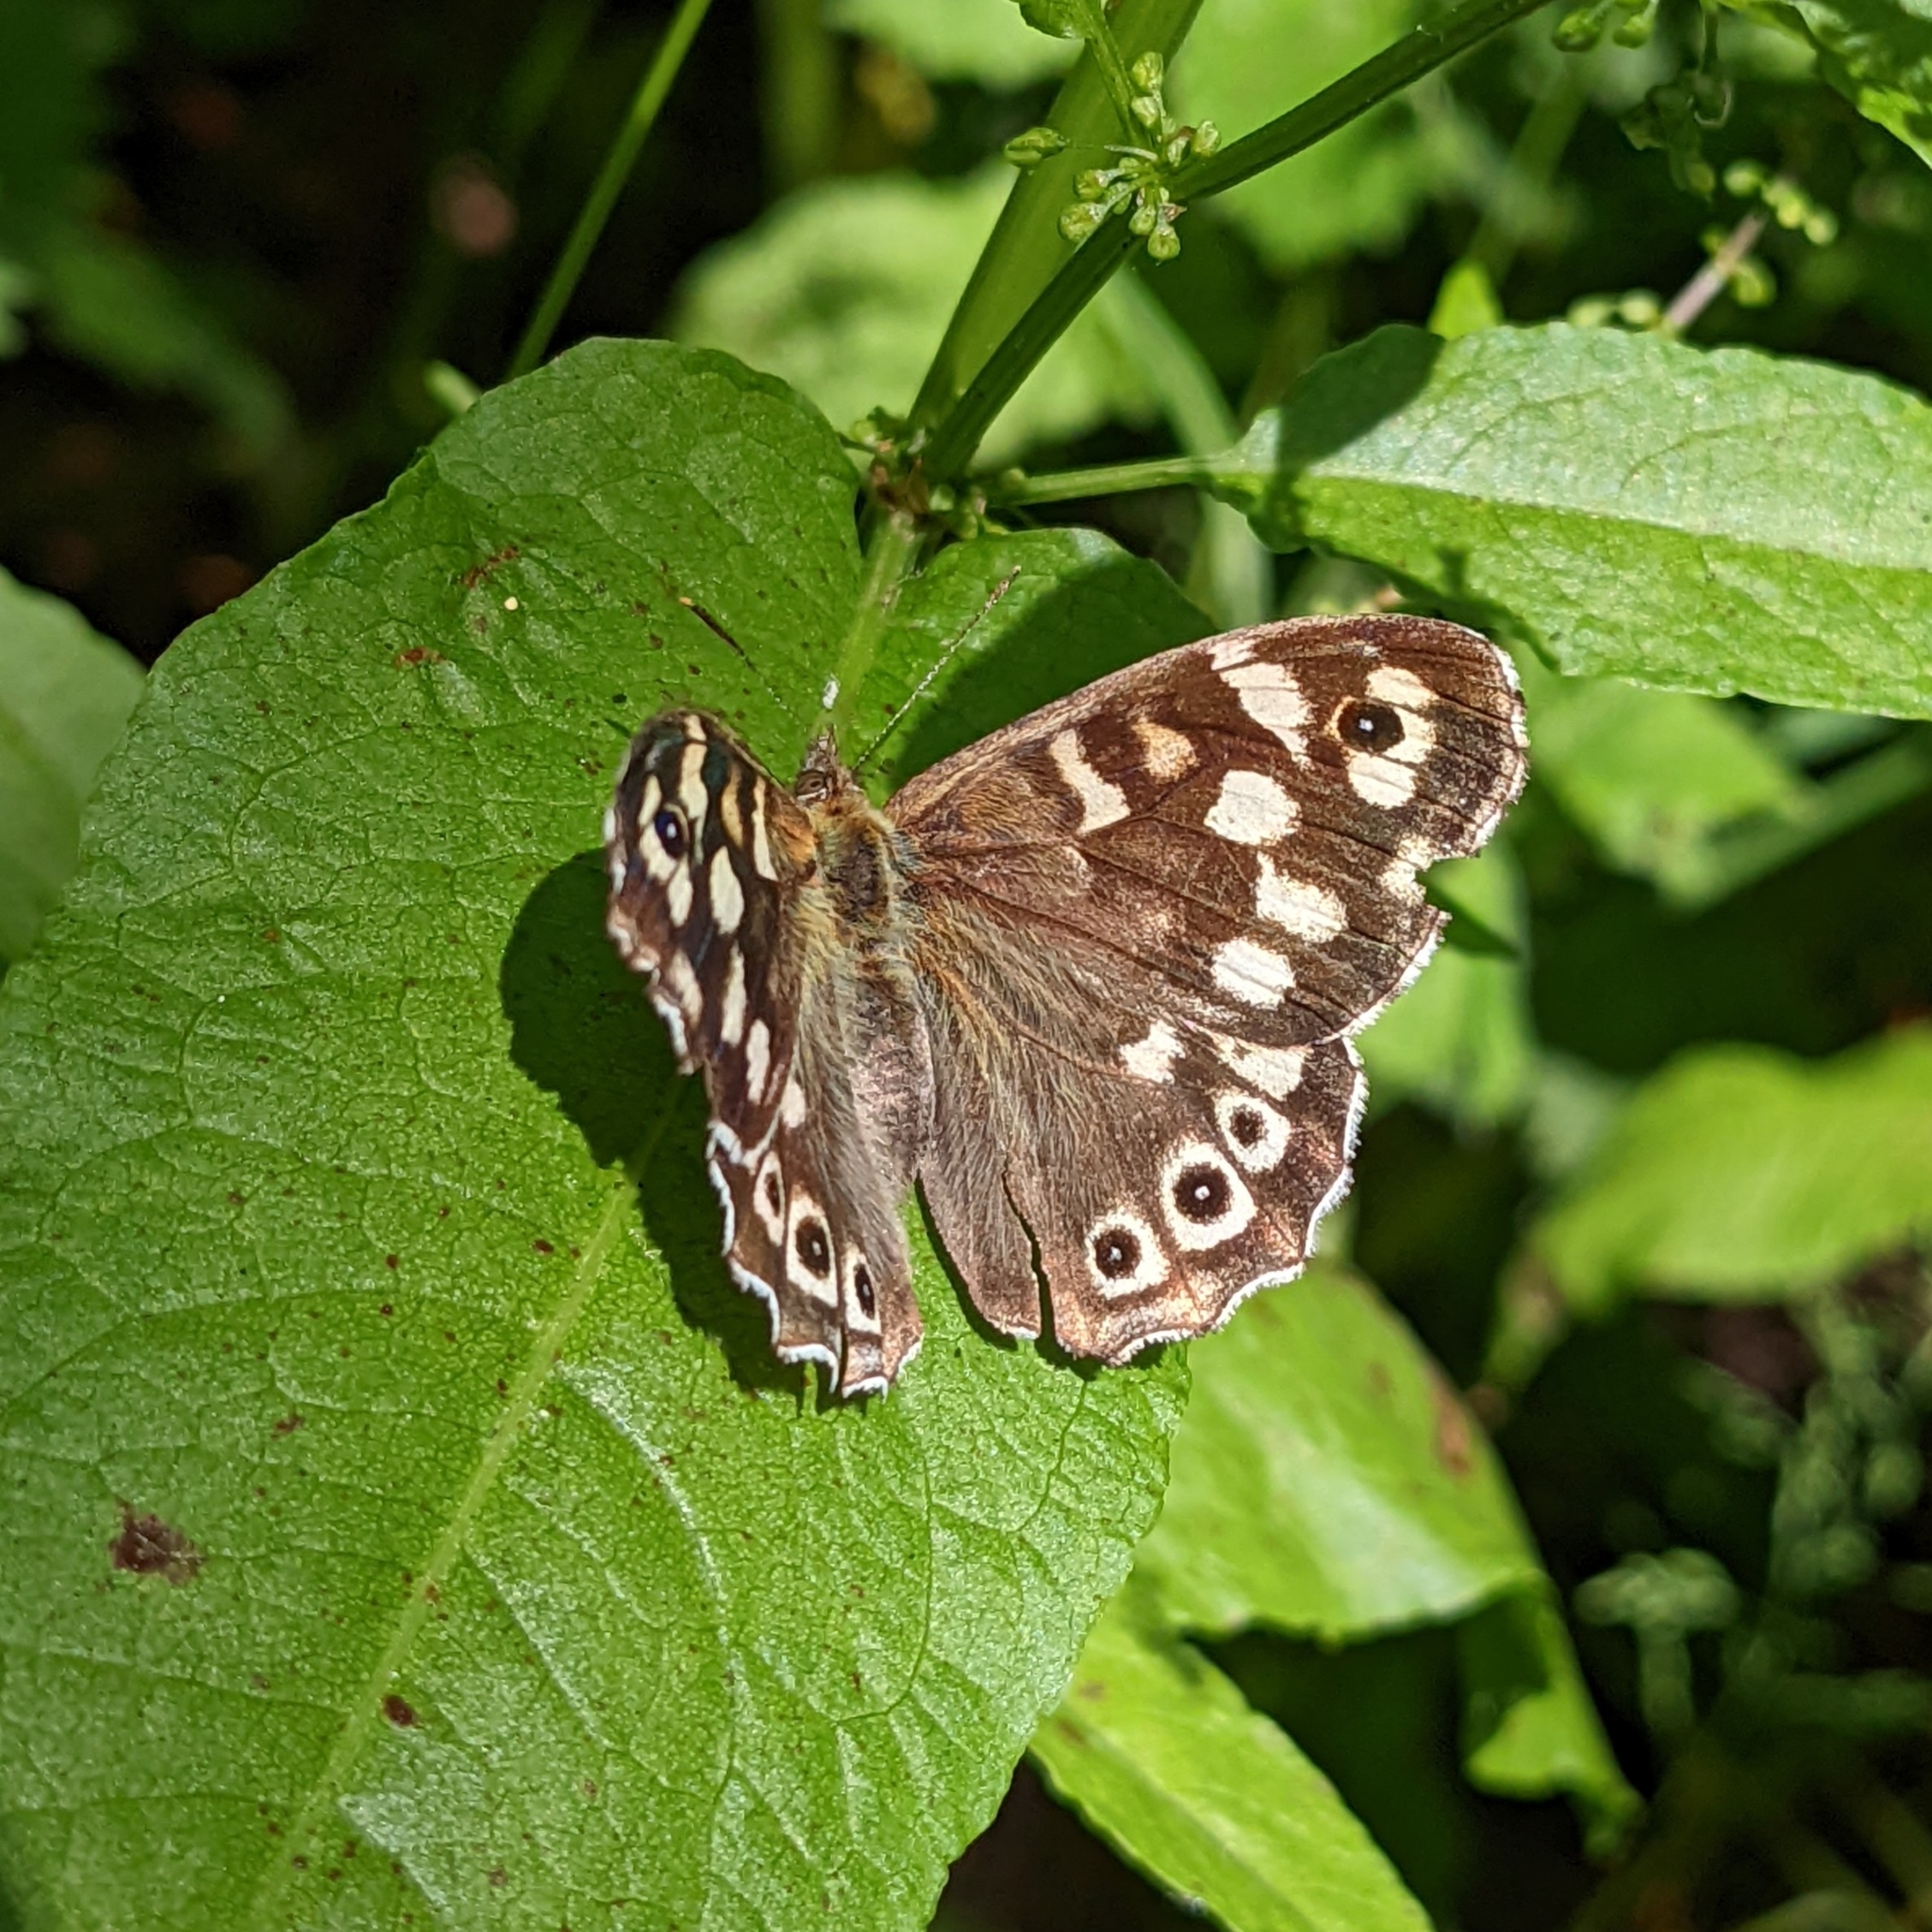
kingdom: Animalia
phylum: Arthropoda
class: Insecta
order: Lepidoptera
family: Nymphalidae
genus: Pararge
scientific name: Pararge aegeria
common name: Speckled wood
